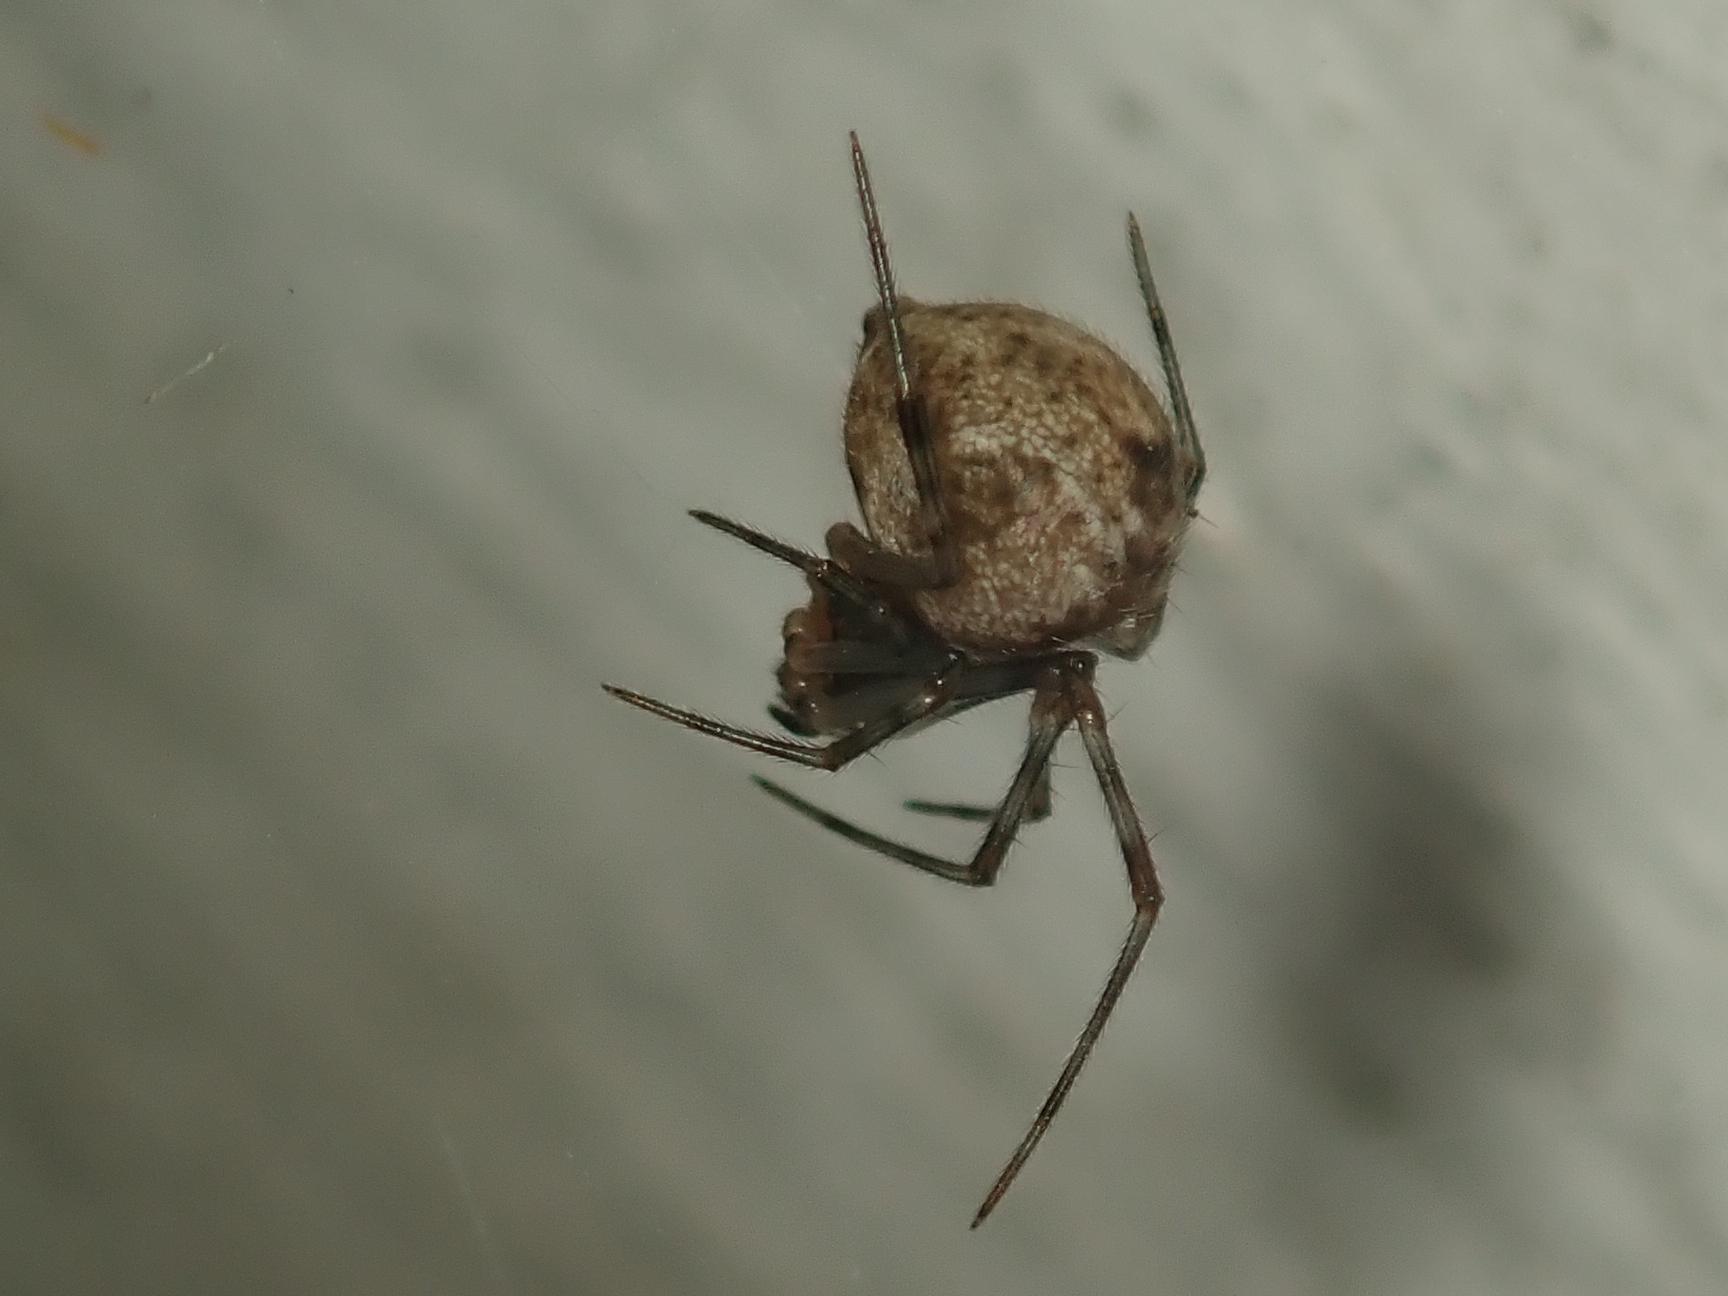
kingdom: Animalia
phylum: Arthropoda
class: Arachnida
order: Araneae
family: Theridiidae
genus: Parasteatoda
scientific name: Parasteatoda tepidariorum
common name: Common house spider
